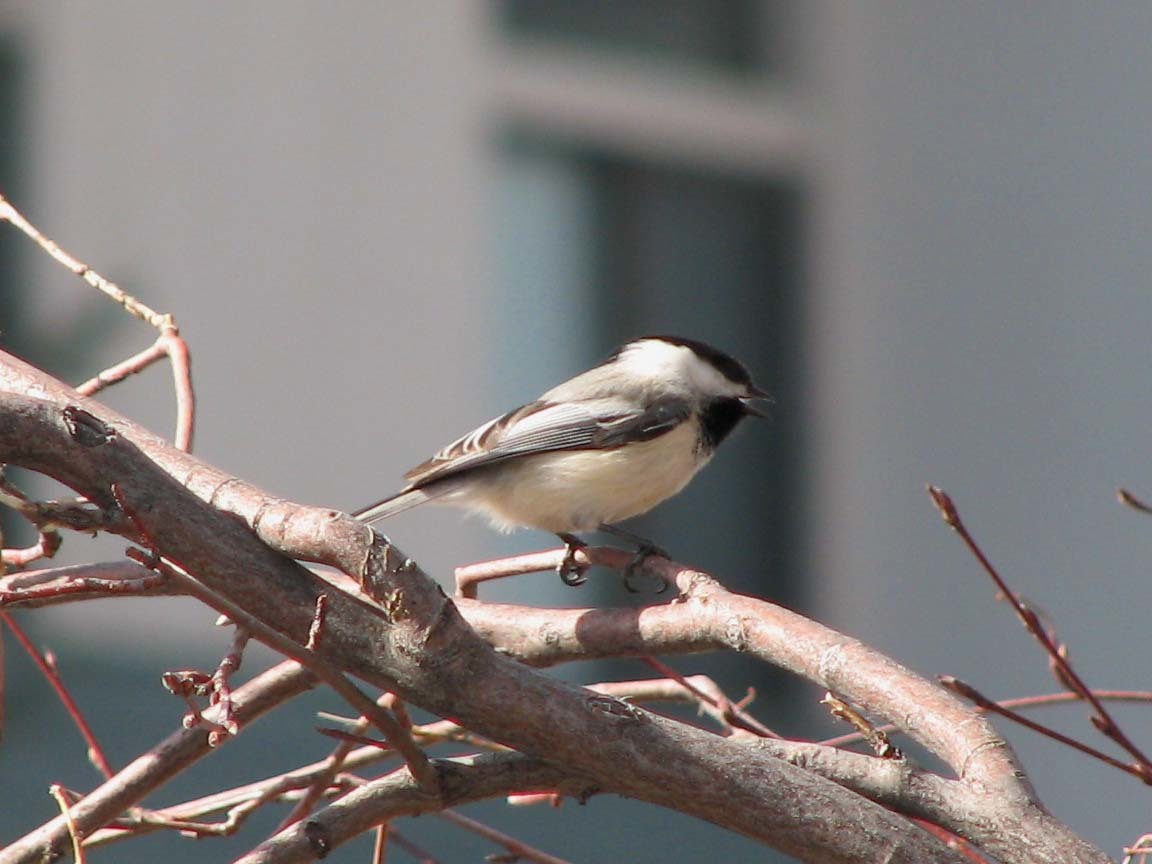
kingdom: Animalia
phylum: Chordata
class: Aves
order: Passeriformes
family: Paridae
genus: Poecile
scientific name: Poecile atricapillus
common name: Black-capped chickadee
